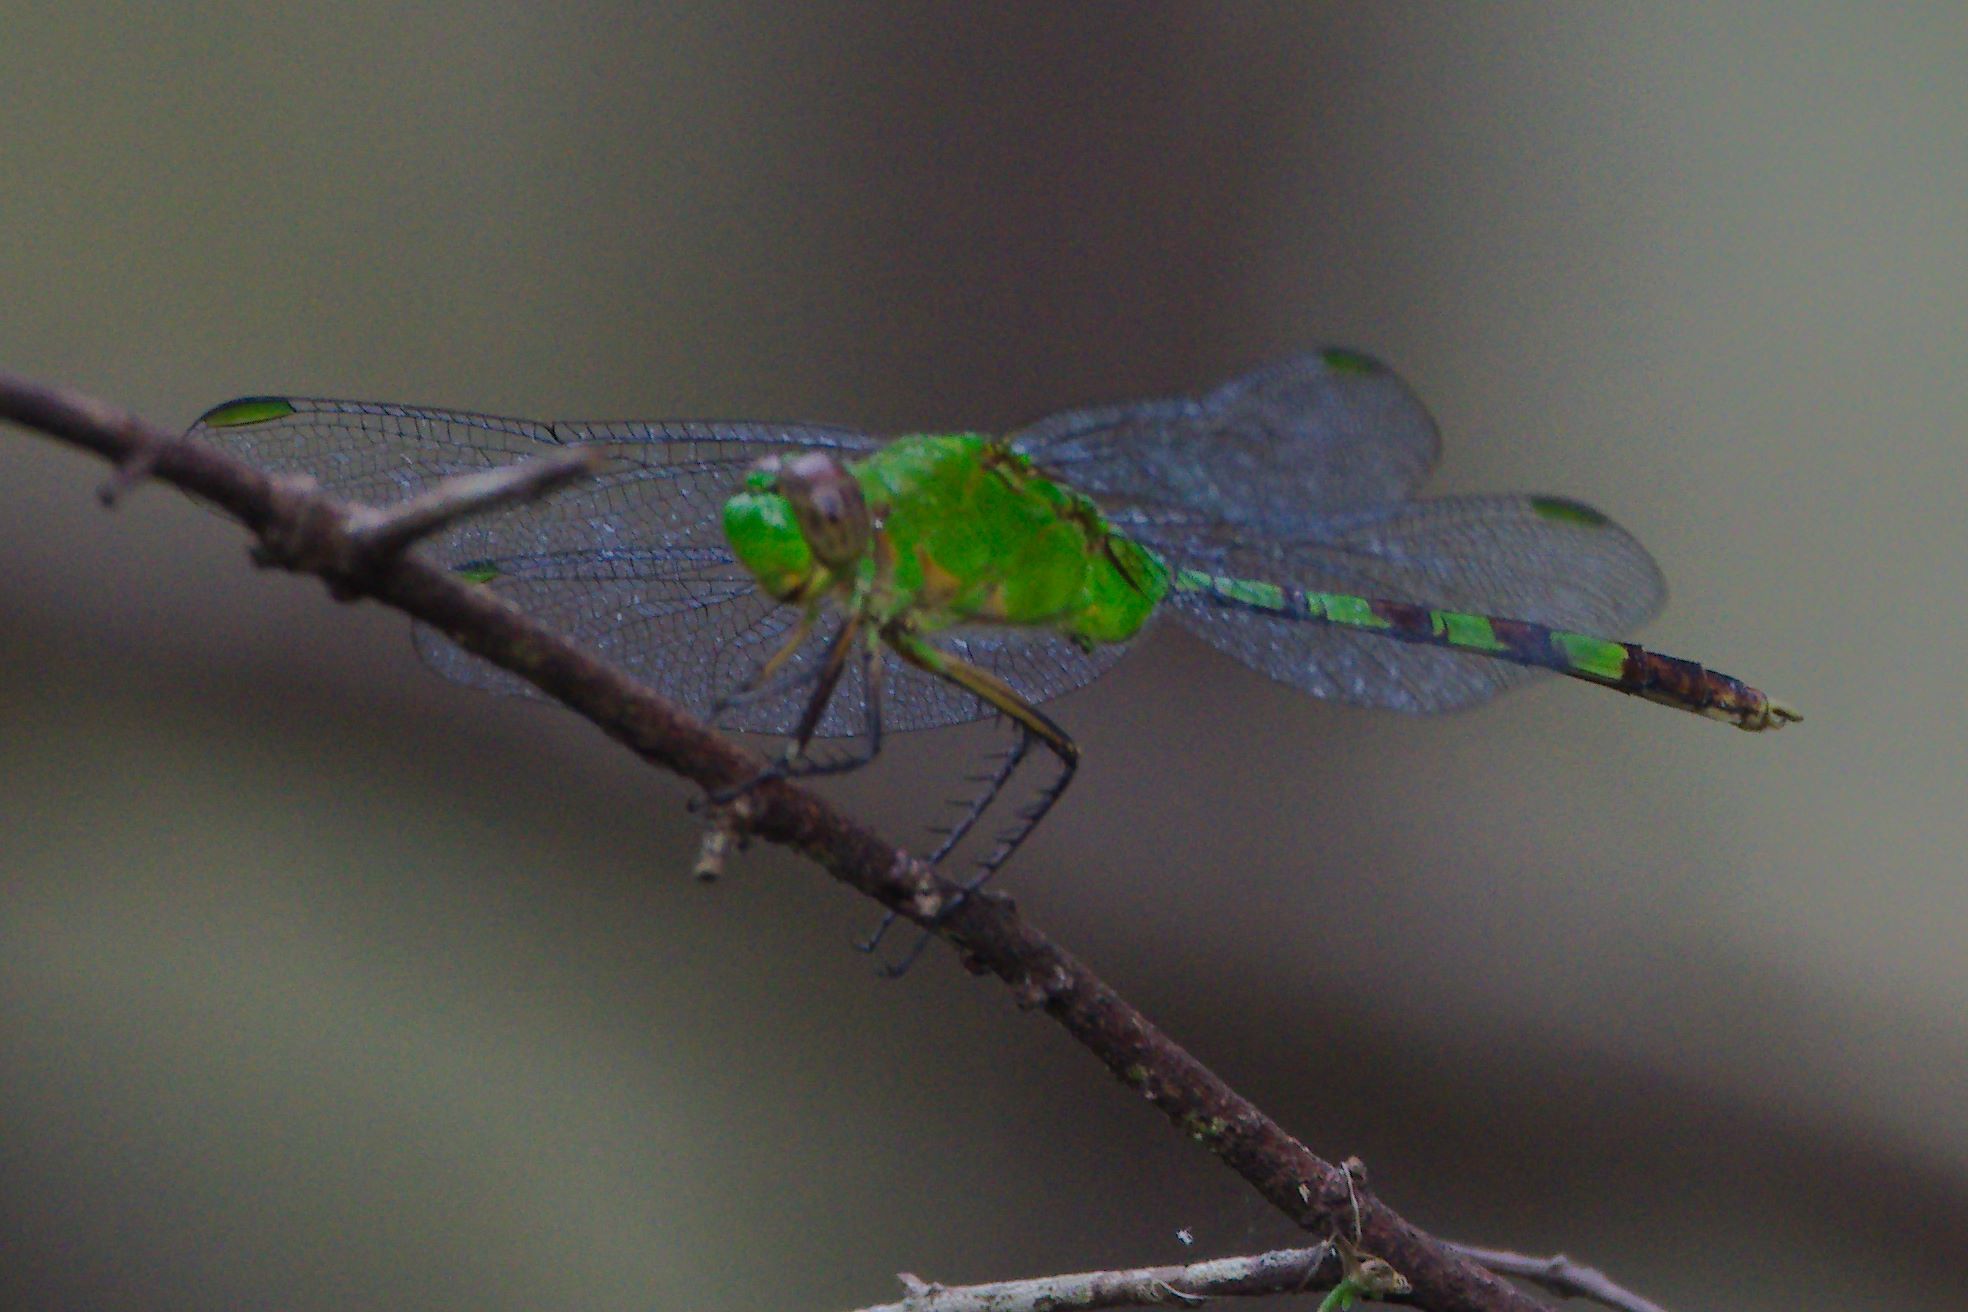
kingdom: Animalia
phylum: Arthropoda
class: Insecta
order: Odonata
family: Libellulidae
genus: Erythemis
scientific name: Erythemis vesiculosa
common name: Great pondhawk
